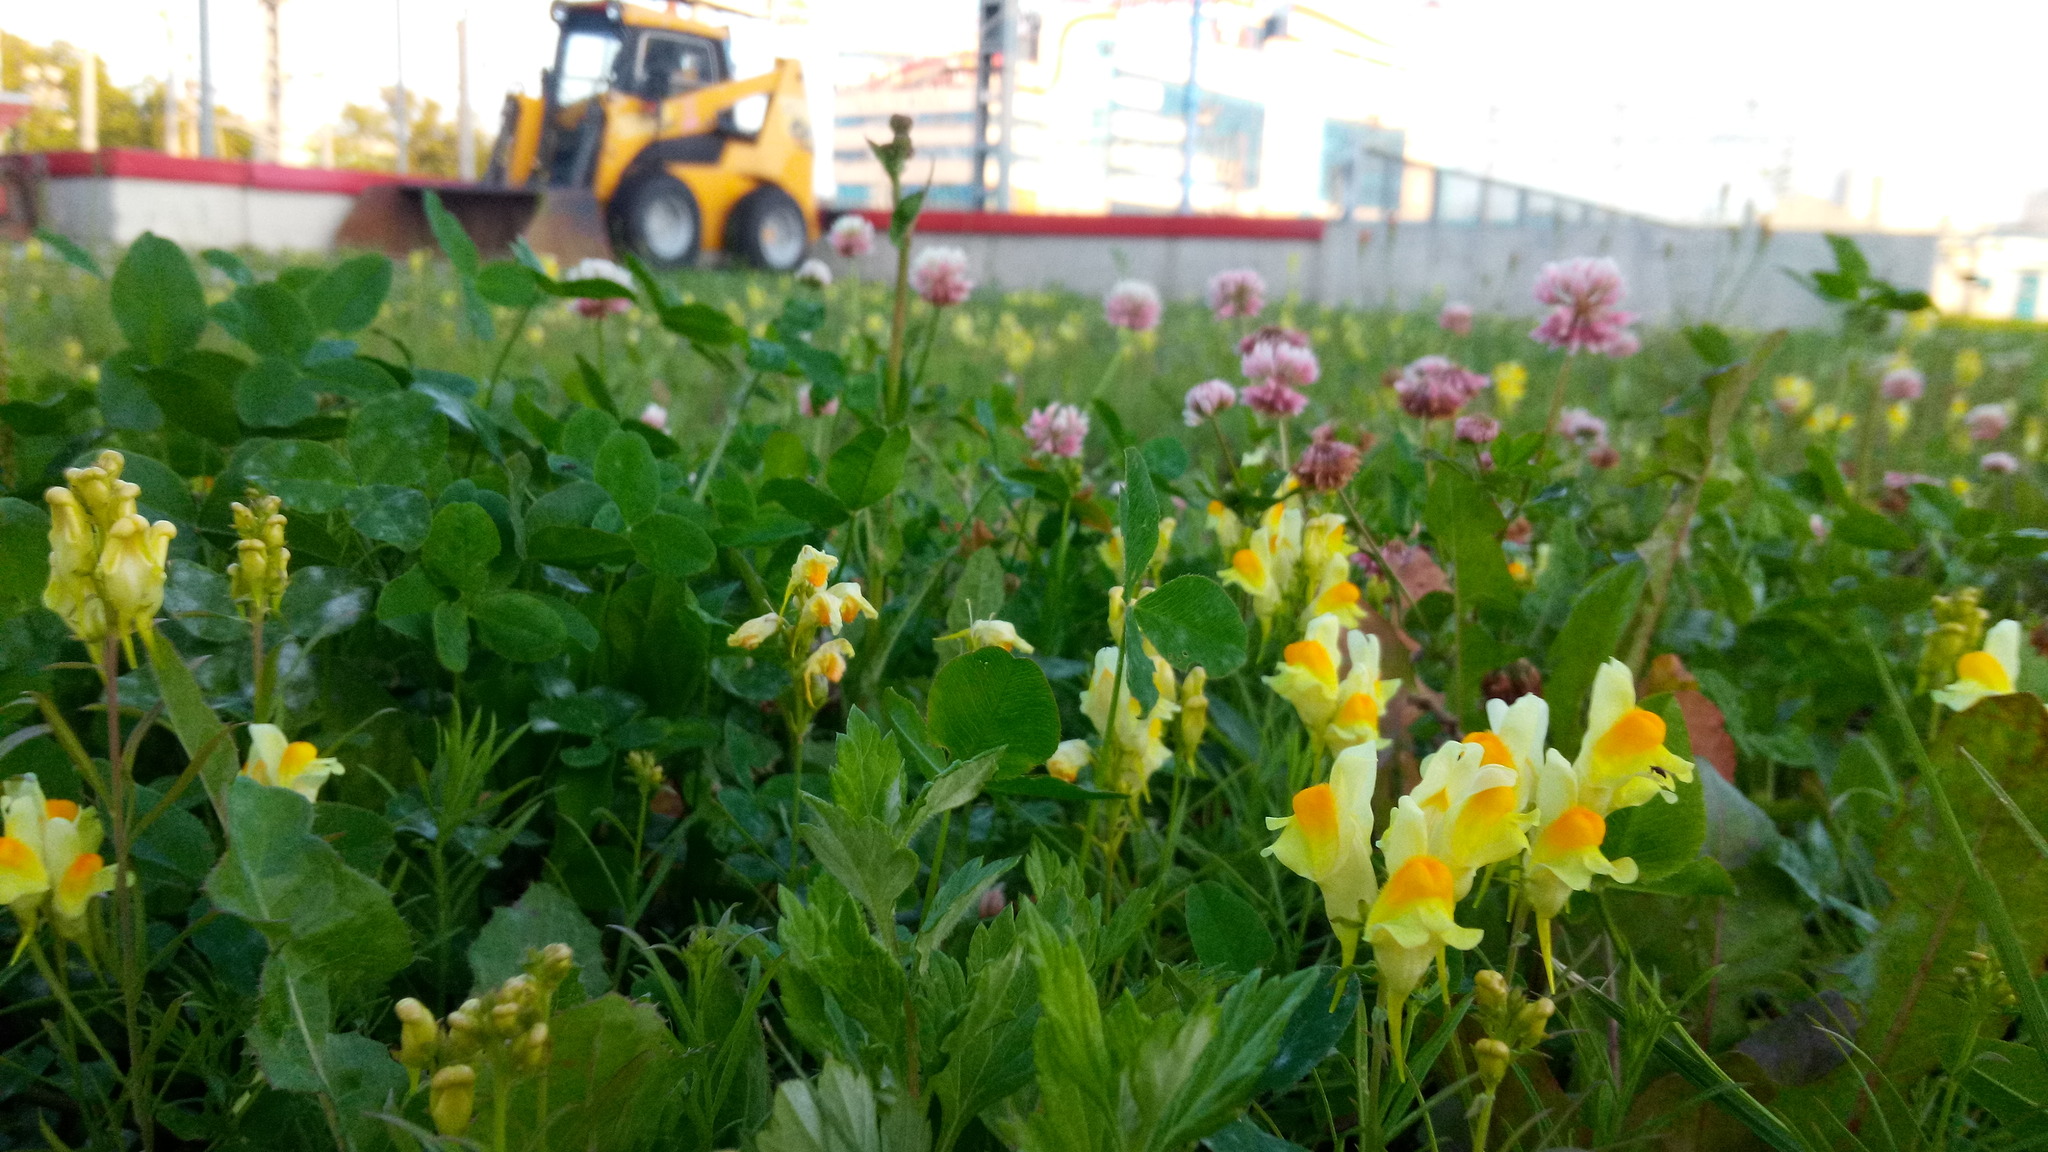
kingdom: Plantae
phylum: Tracheophyta
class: Magnoliopsida
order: Lamiales
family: Plantaginaceae
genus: Linaria
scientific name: Linaria vulgaris
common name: Butter and eggs
